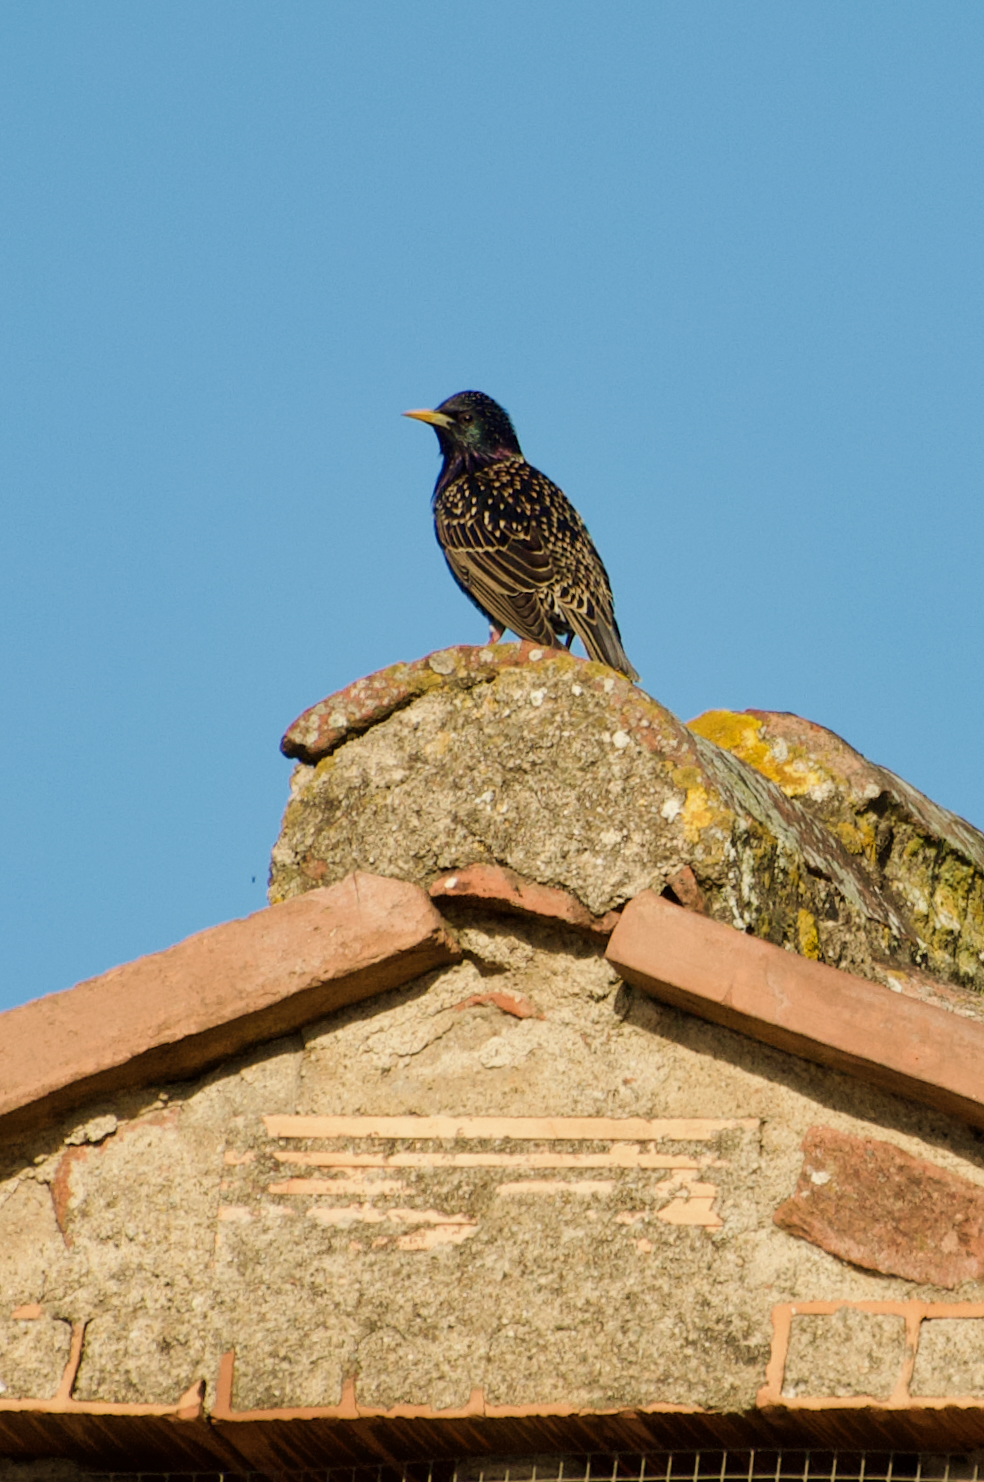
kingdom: Animalia
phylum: Chordata
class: Aves
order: Passeriformes
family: Sturnidae
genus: Sturnus
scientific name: Sturnus vulgaris
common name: Common starling
